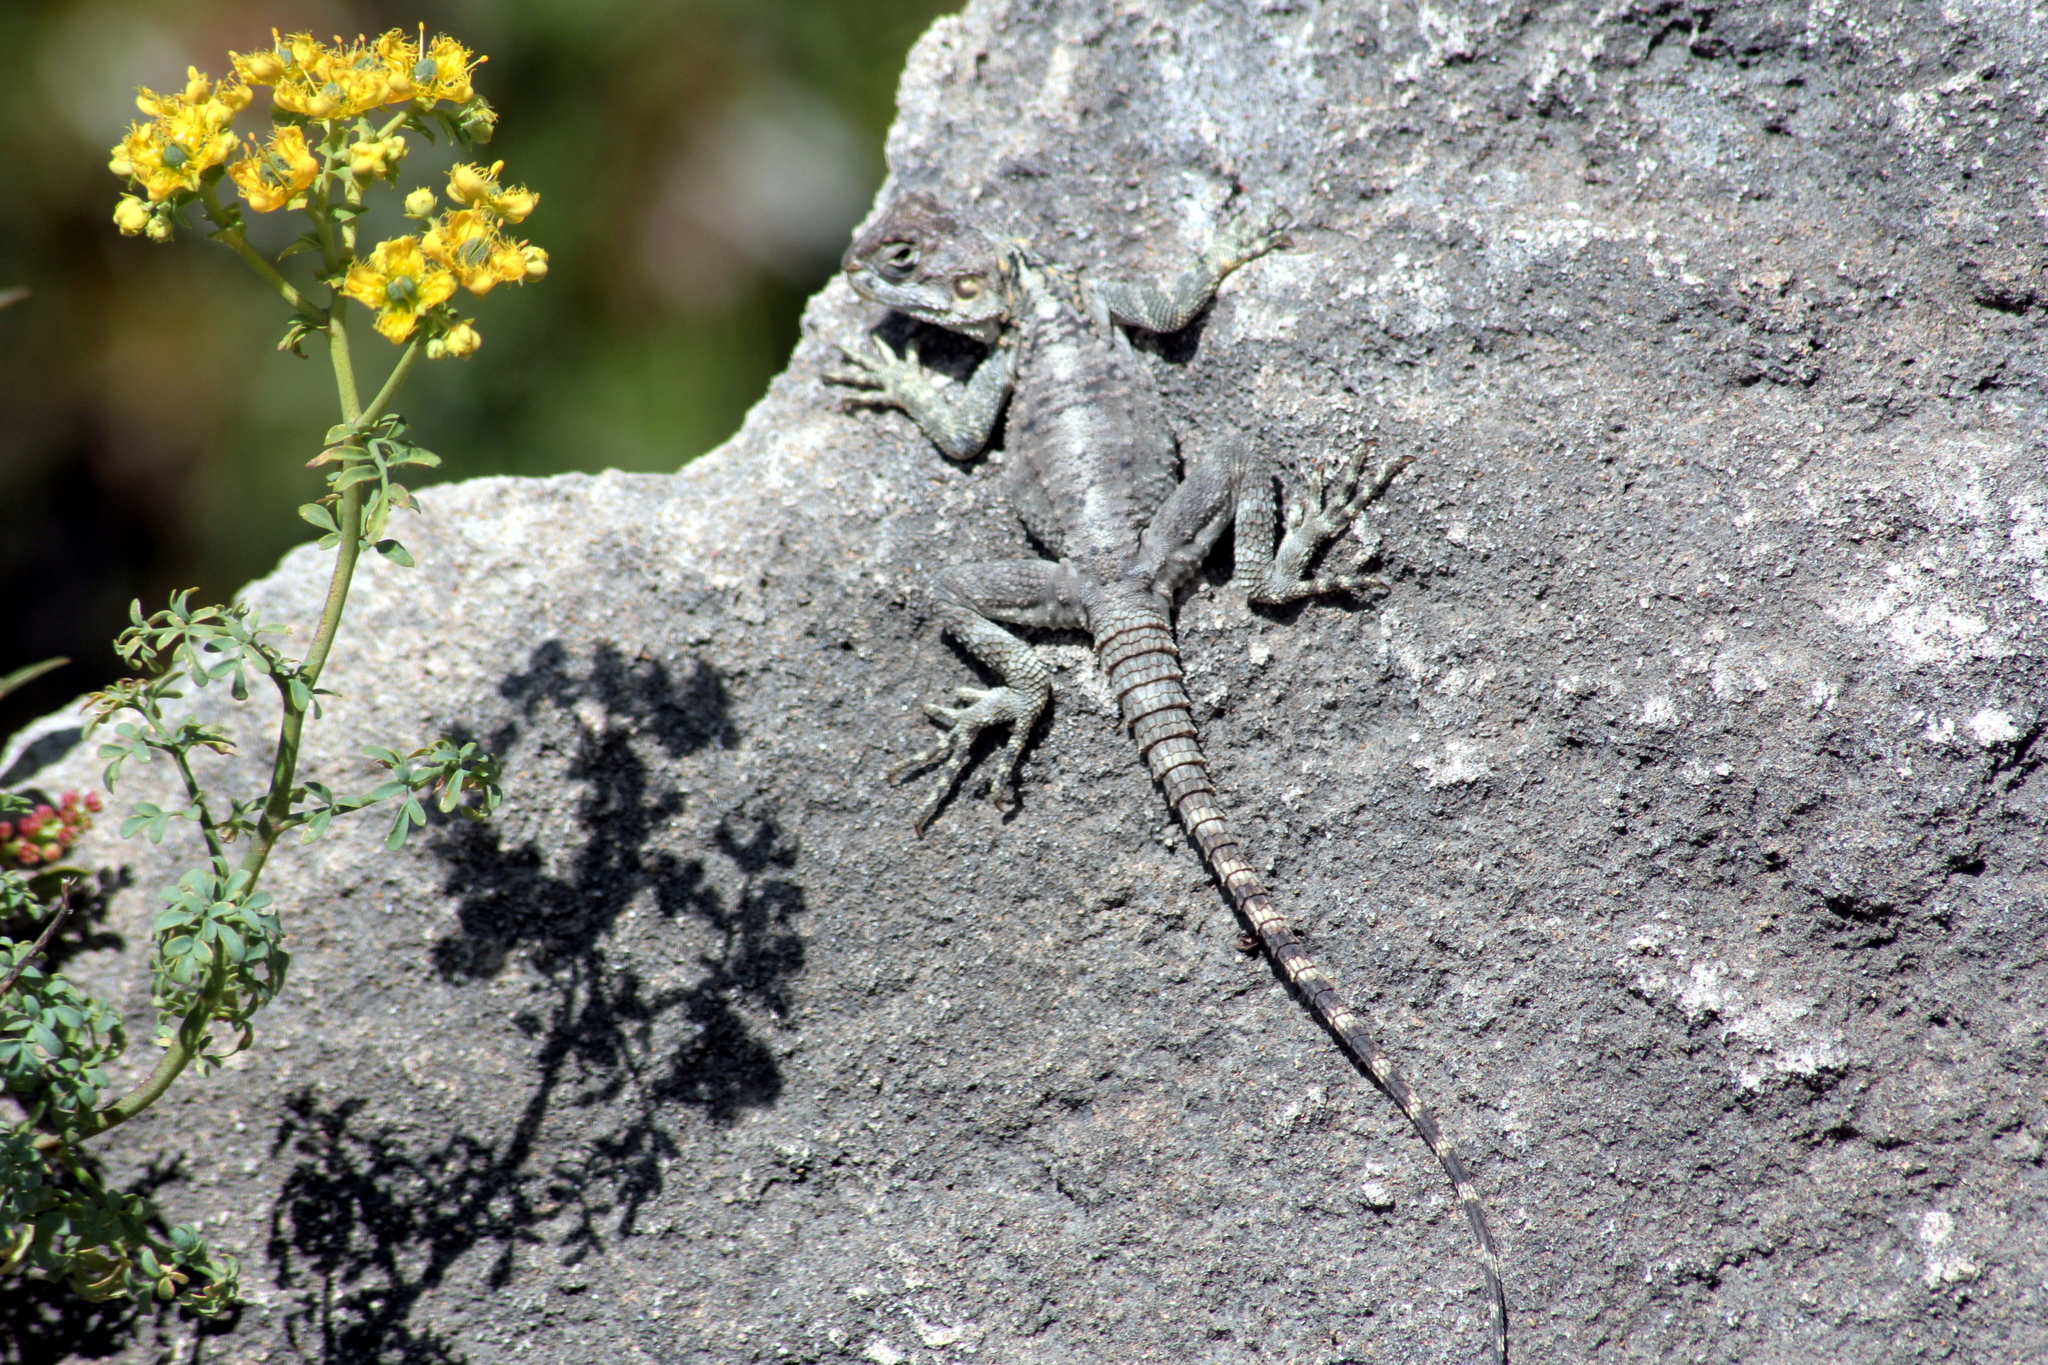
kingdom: Animalia
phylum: Chordata
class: Squamata
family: Agamidae
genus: Laudakia
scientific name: Laudakia
